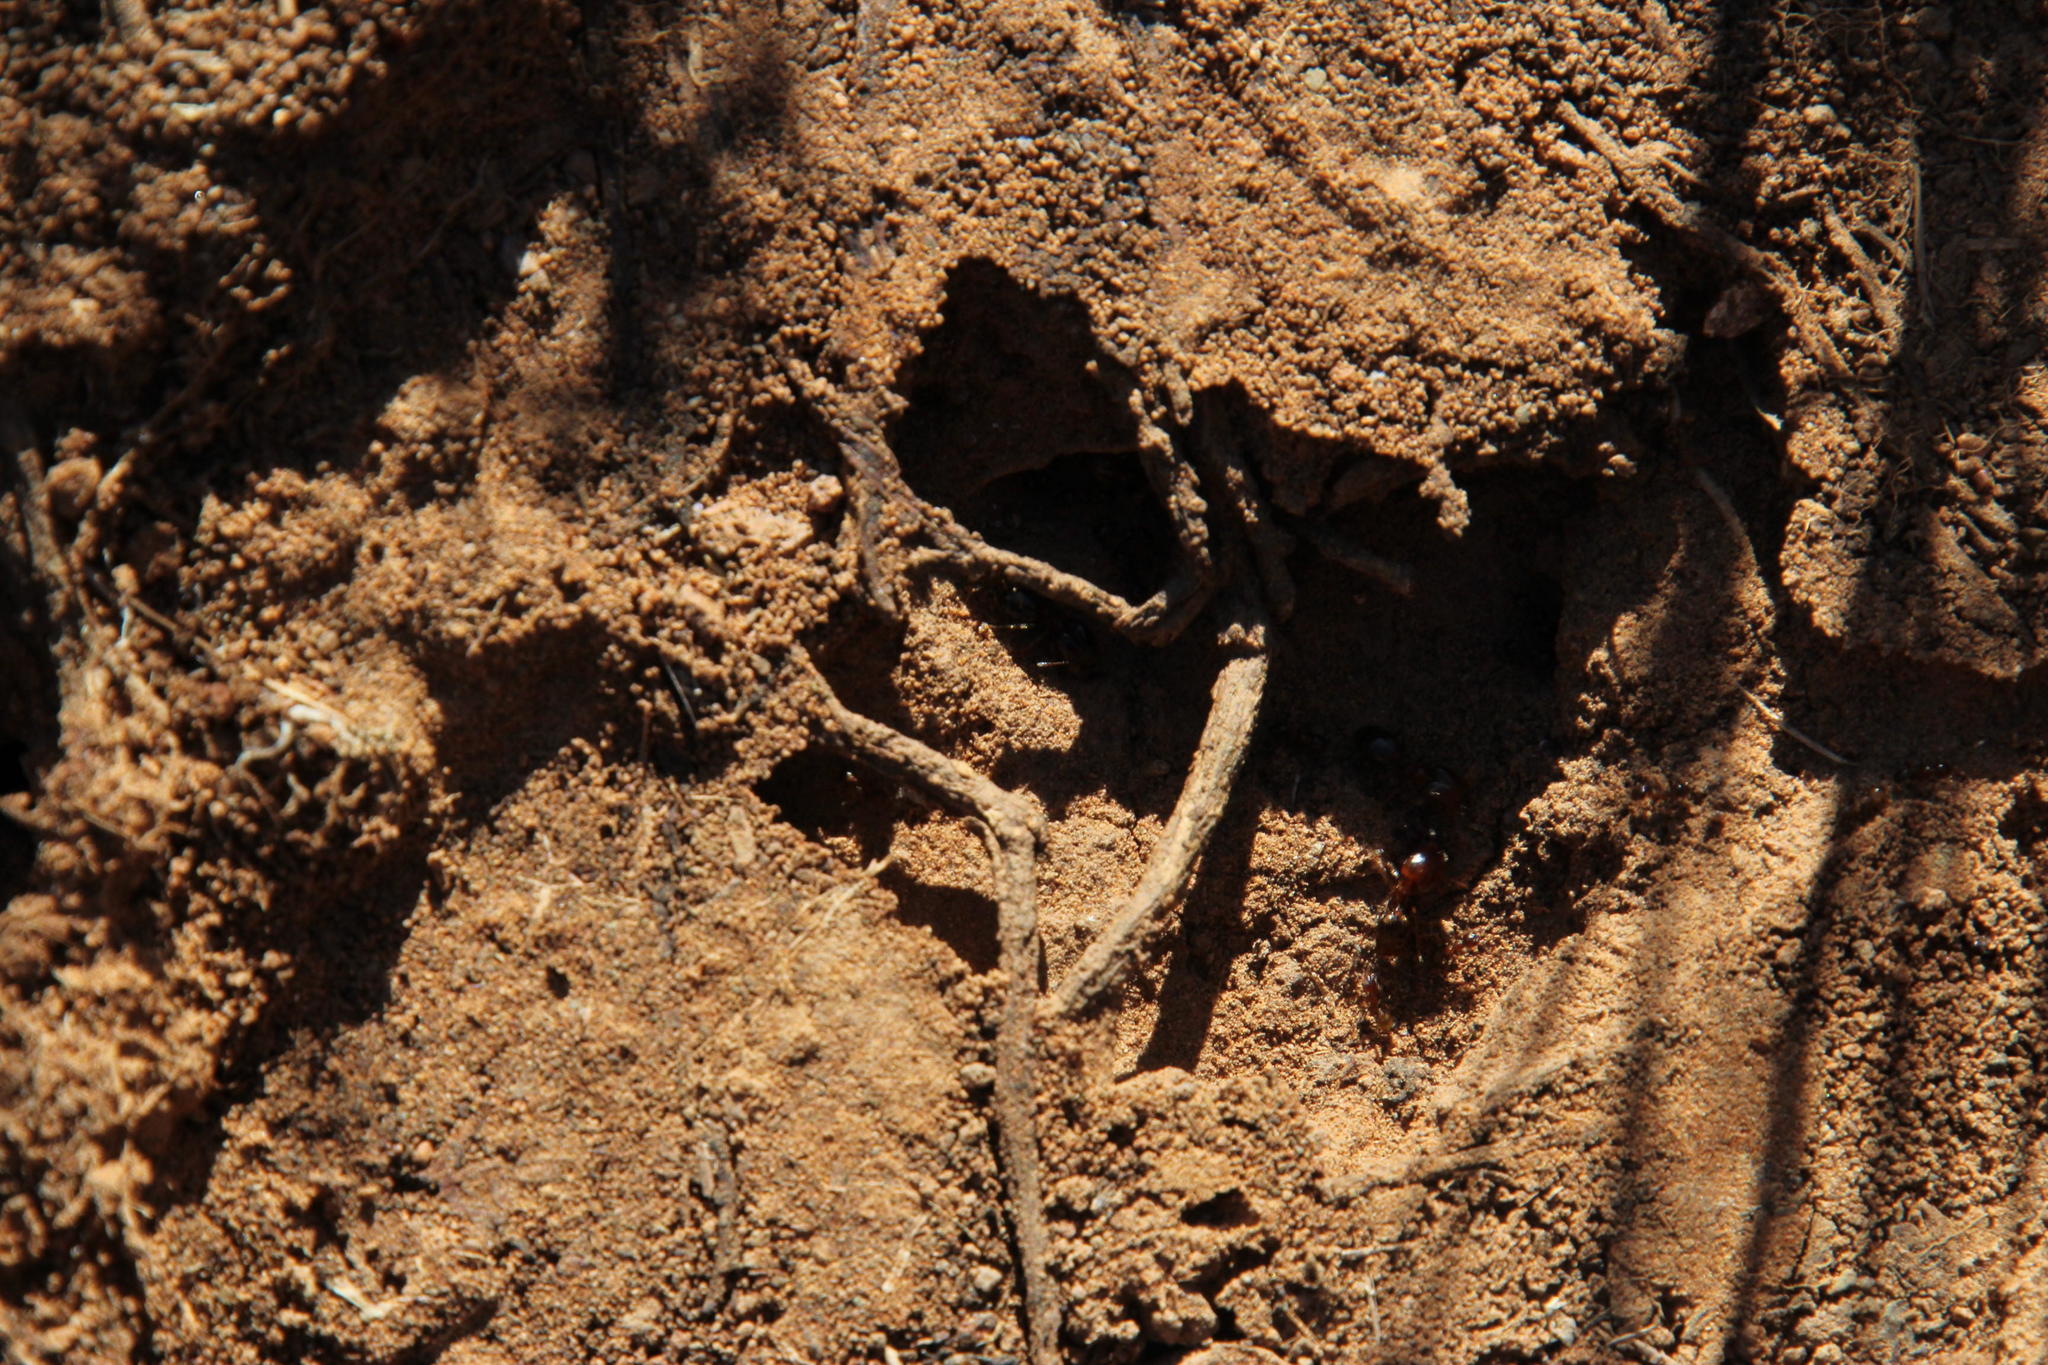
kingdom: Animalia
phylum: Arthropoda
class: Insecta
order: Hymenoptera
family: Formicidae
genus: Pheidole
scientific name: Pheidole tenuinodis
